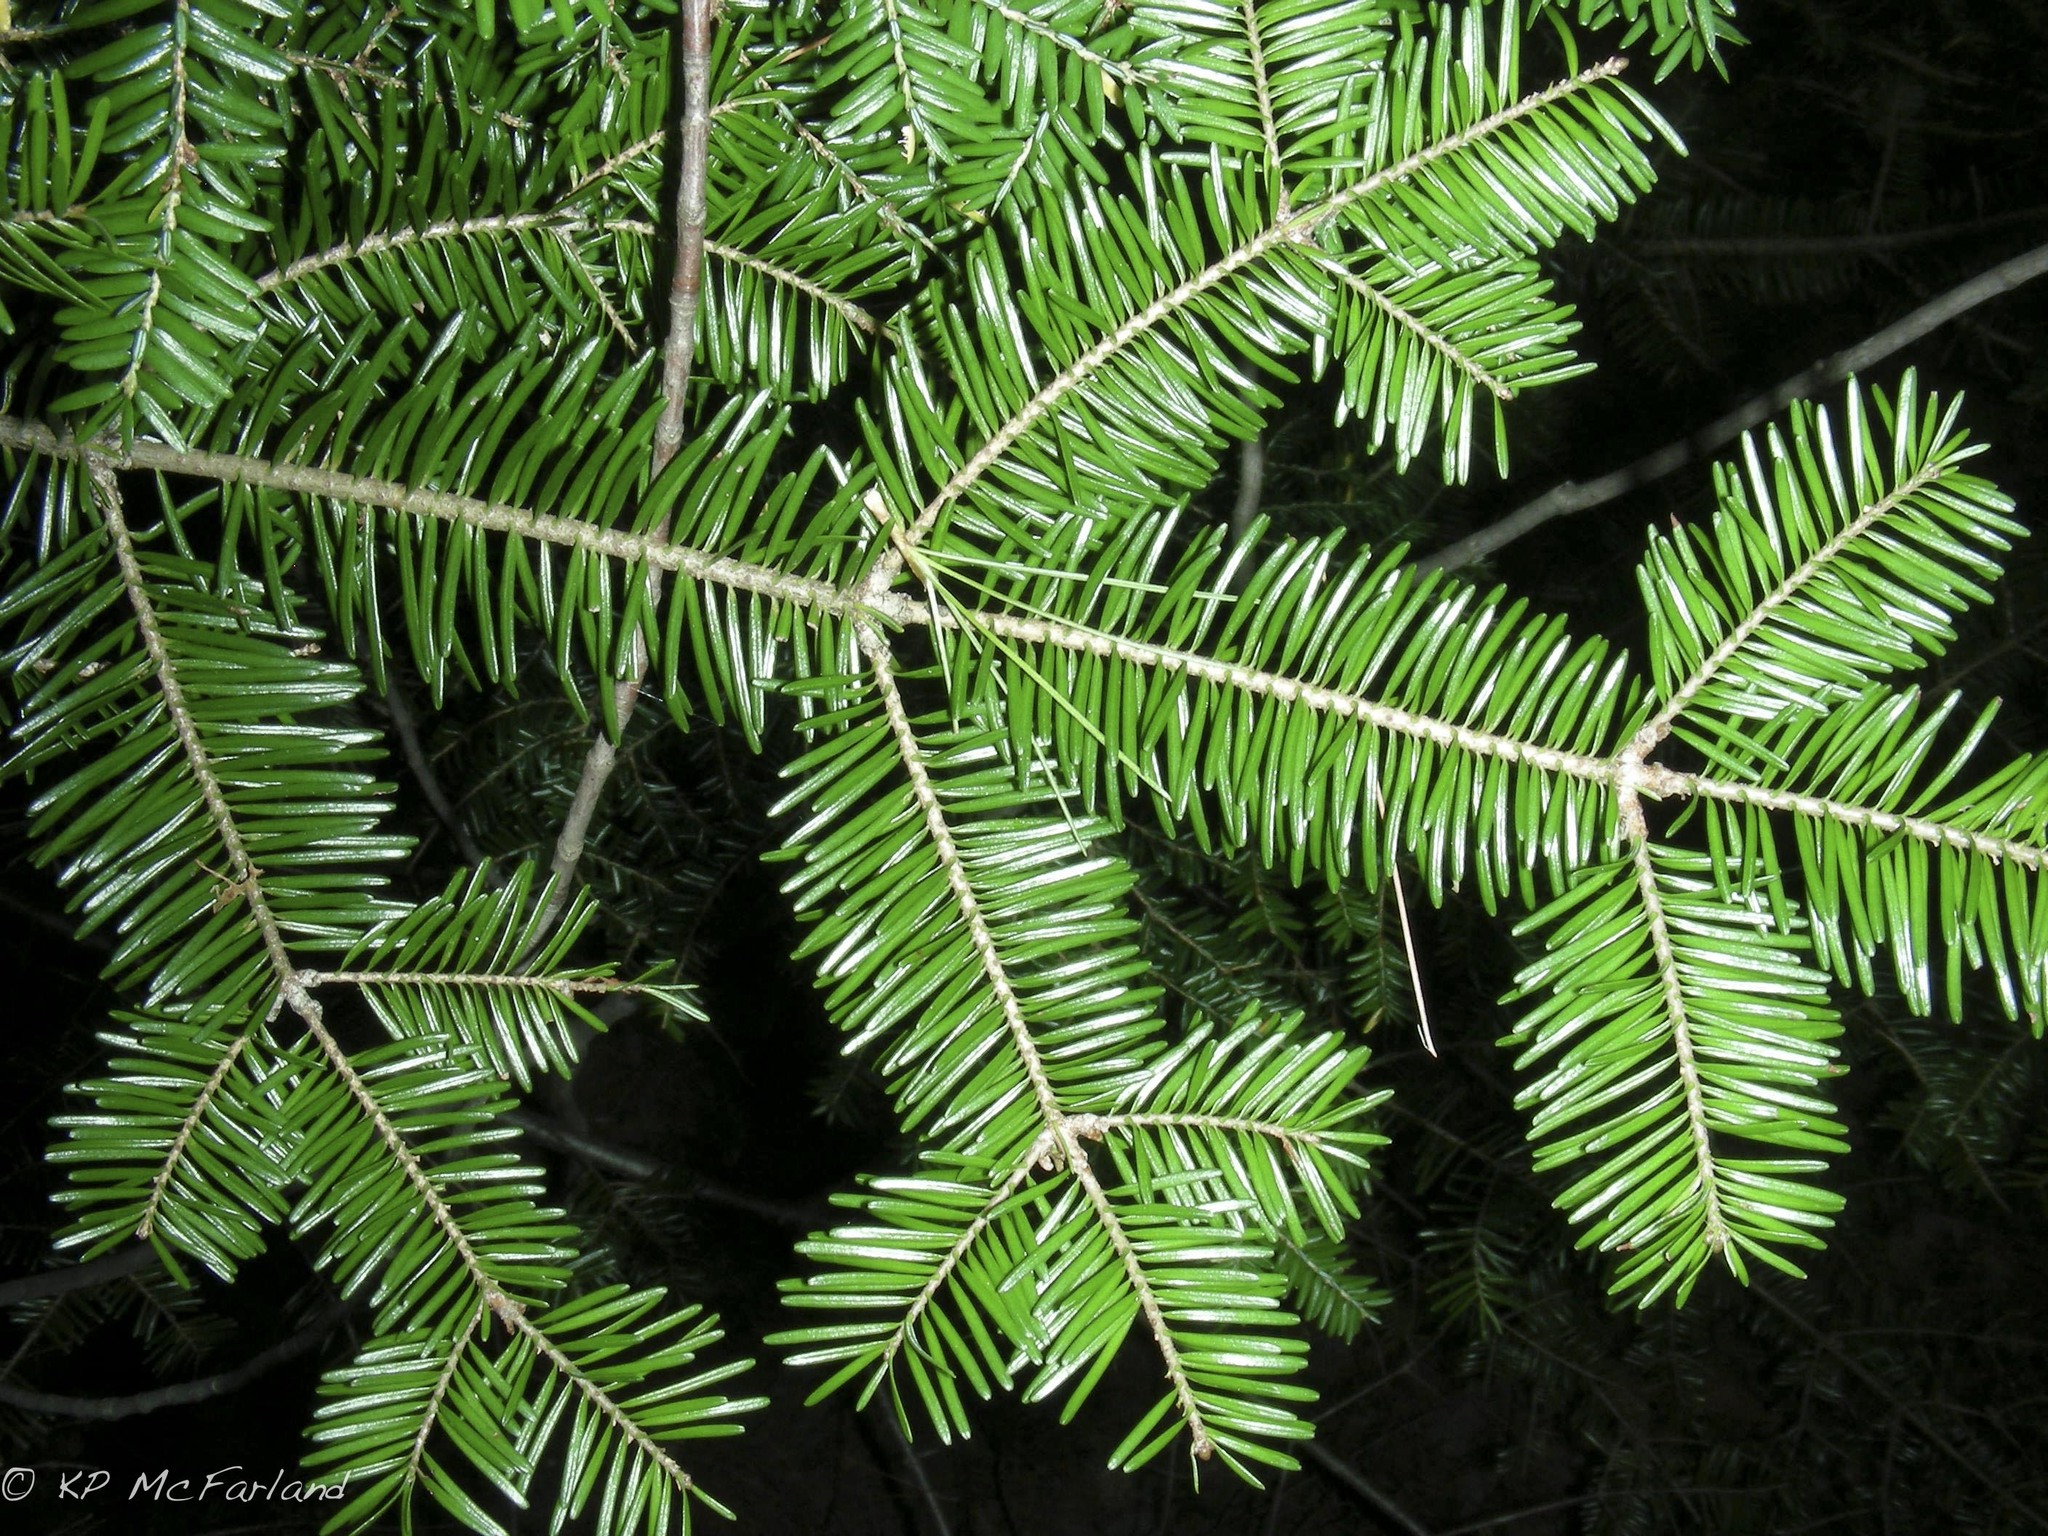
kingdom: Plantae
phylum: Tracheophyta
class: Pinopsida
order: Pinales
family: Pinaceae
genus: Abies
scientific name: Abies balsamea
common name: Balsam fir
